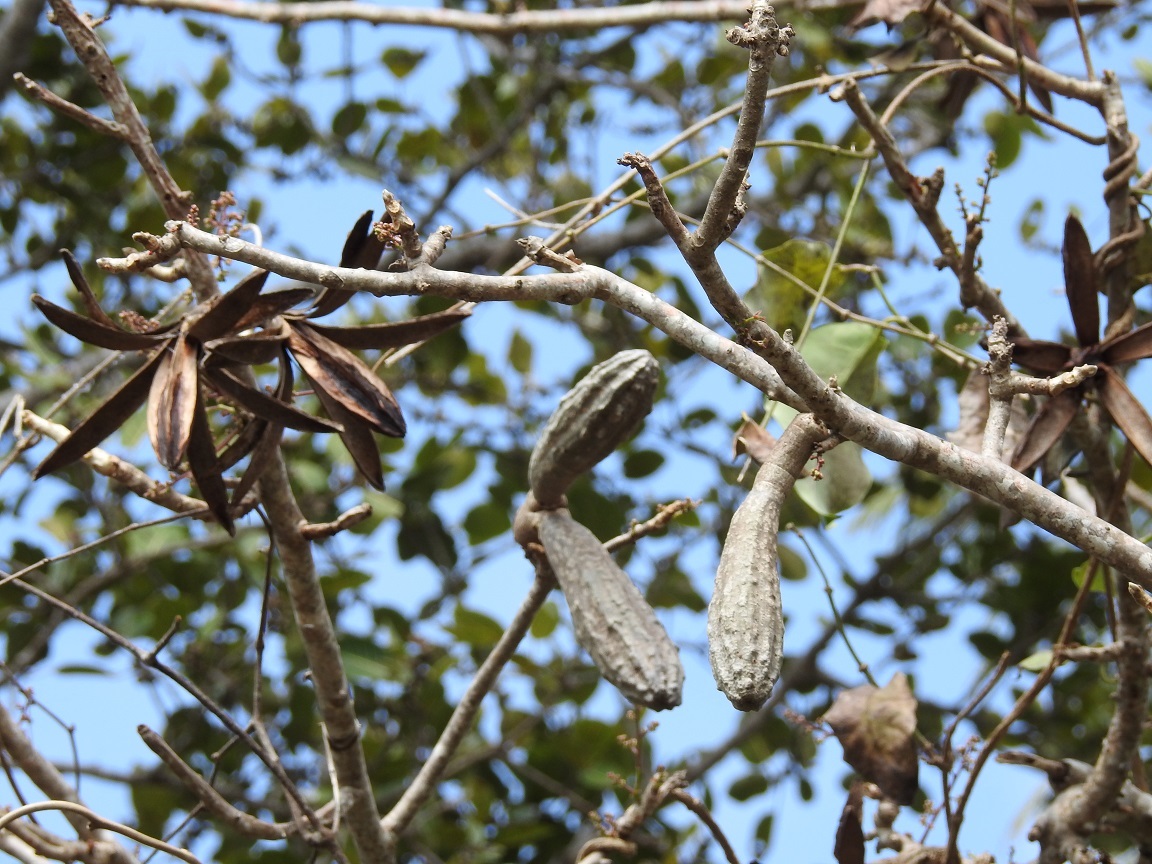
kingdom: Plantae
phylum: Tracheophyta
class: Magnoliopsida
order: Sapindales
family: Meliaceae
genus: Cedrela
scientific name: Cedrela salvadorensis
